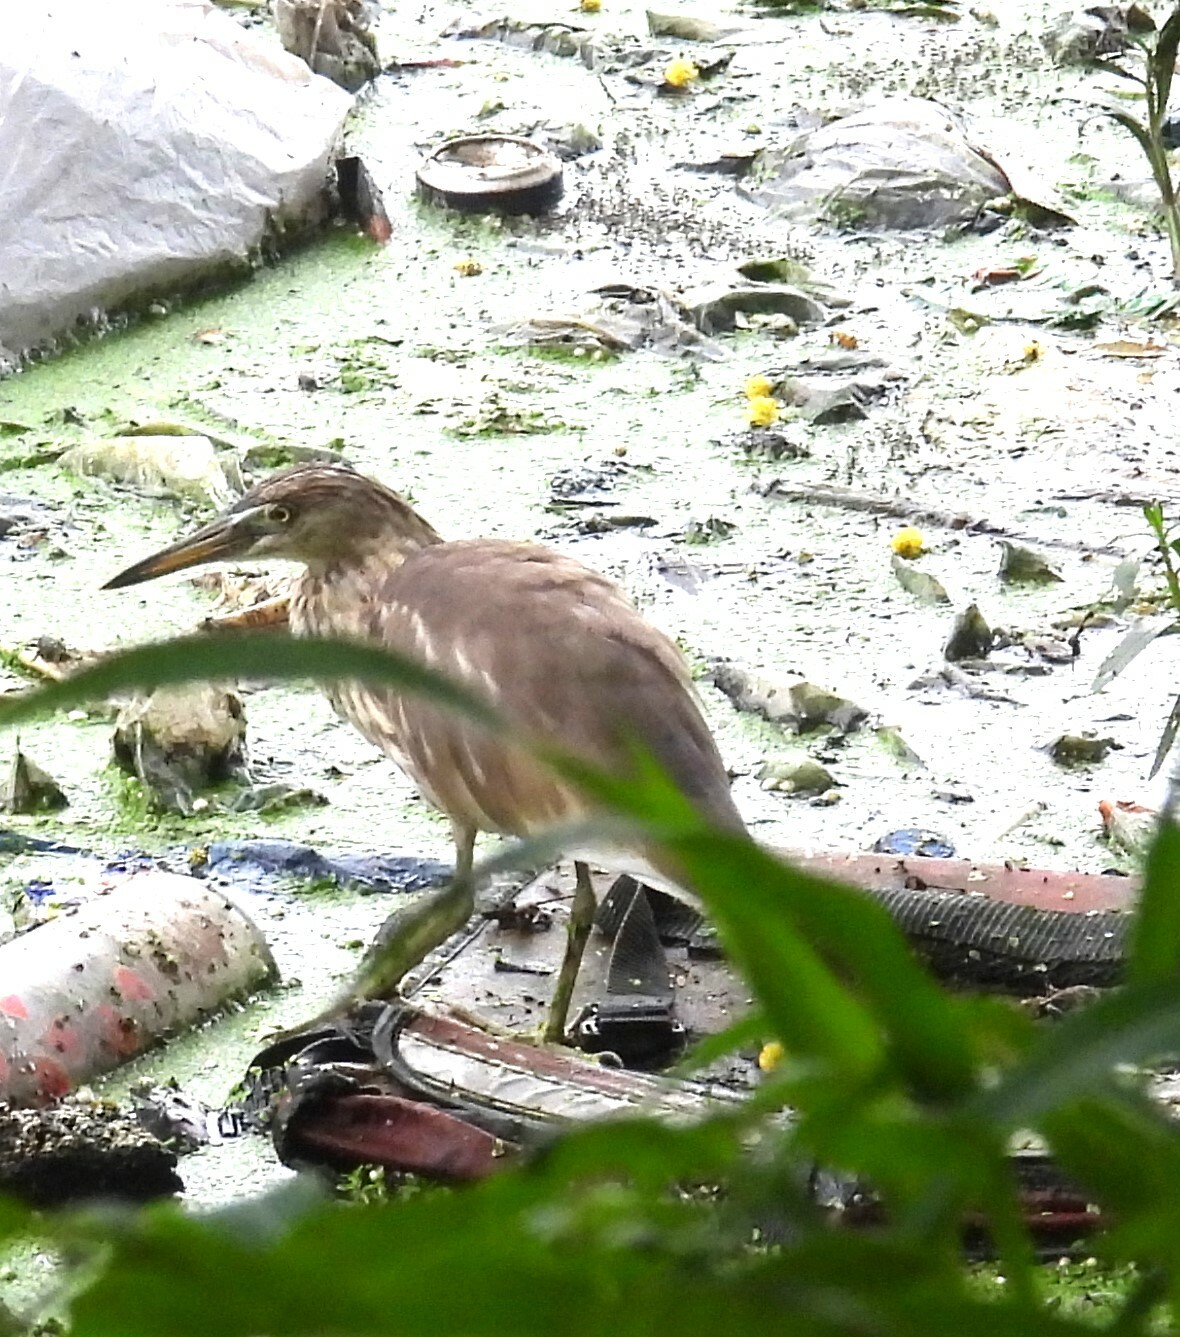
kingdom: Animalia
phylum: Chordata
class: Aves
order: Pelecaniformes
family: Ardeidae
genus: Ardeola
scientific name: Ardeola grayii
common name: Indian pond heron
